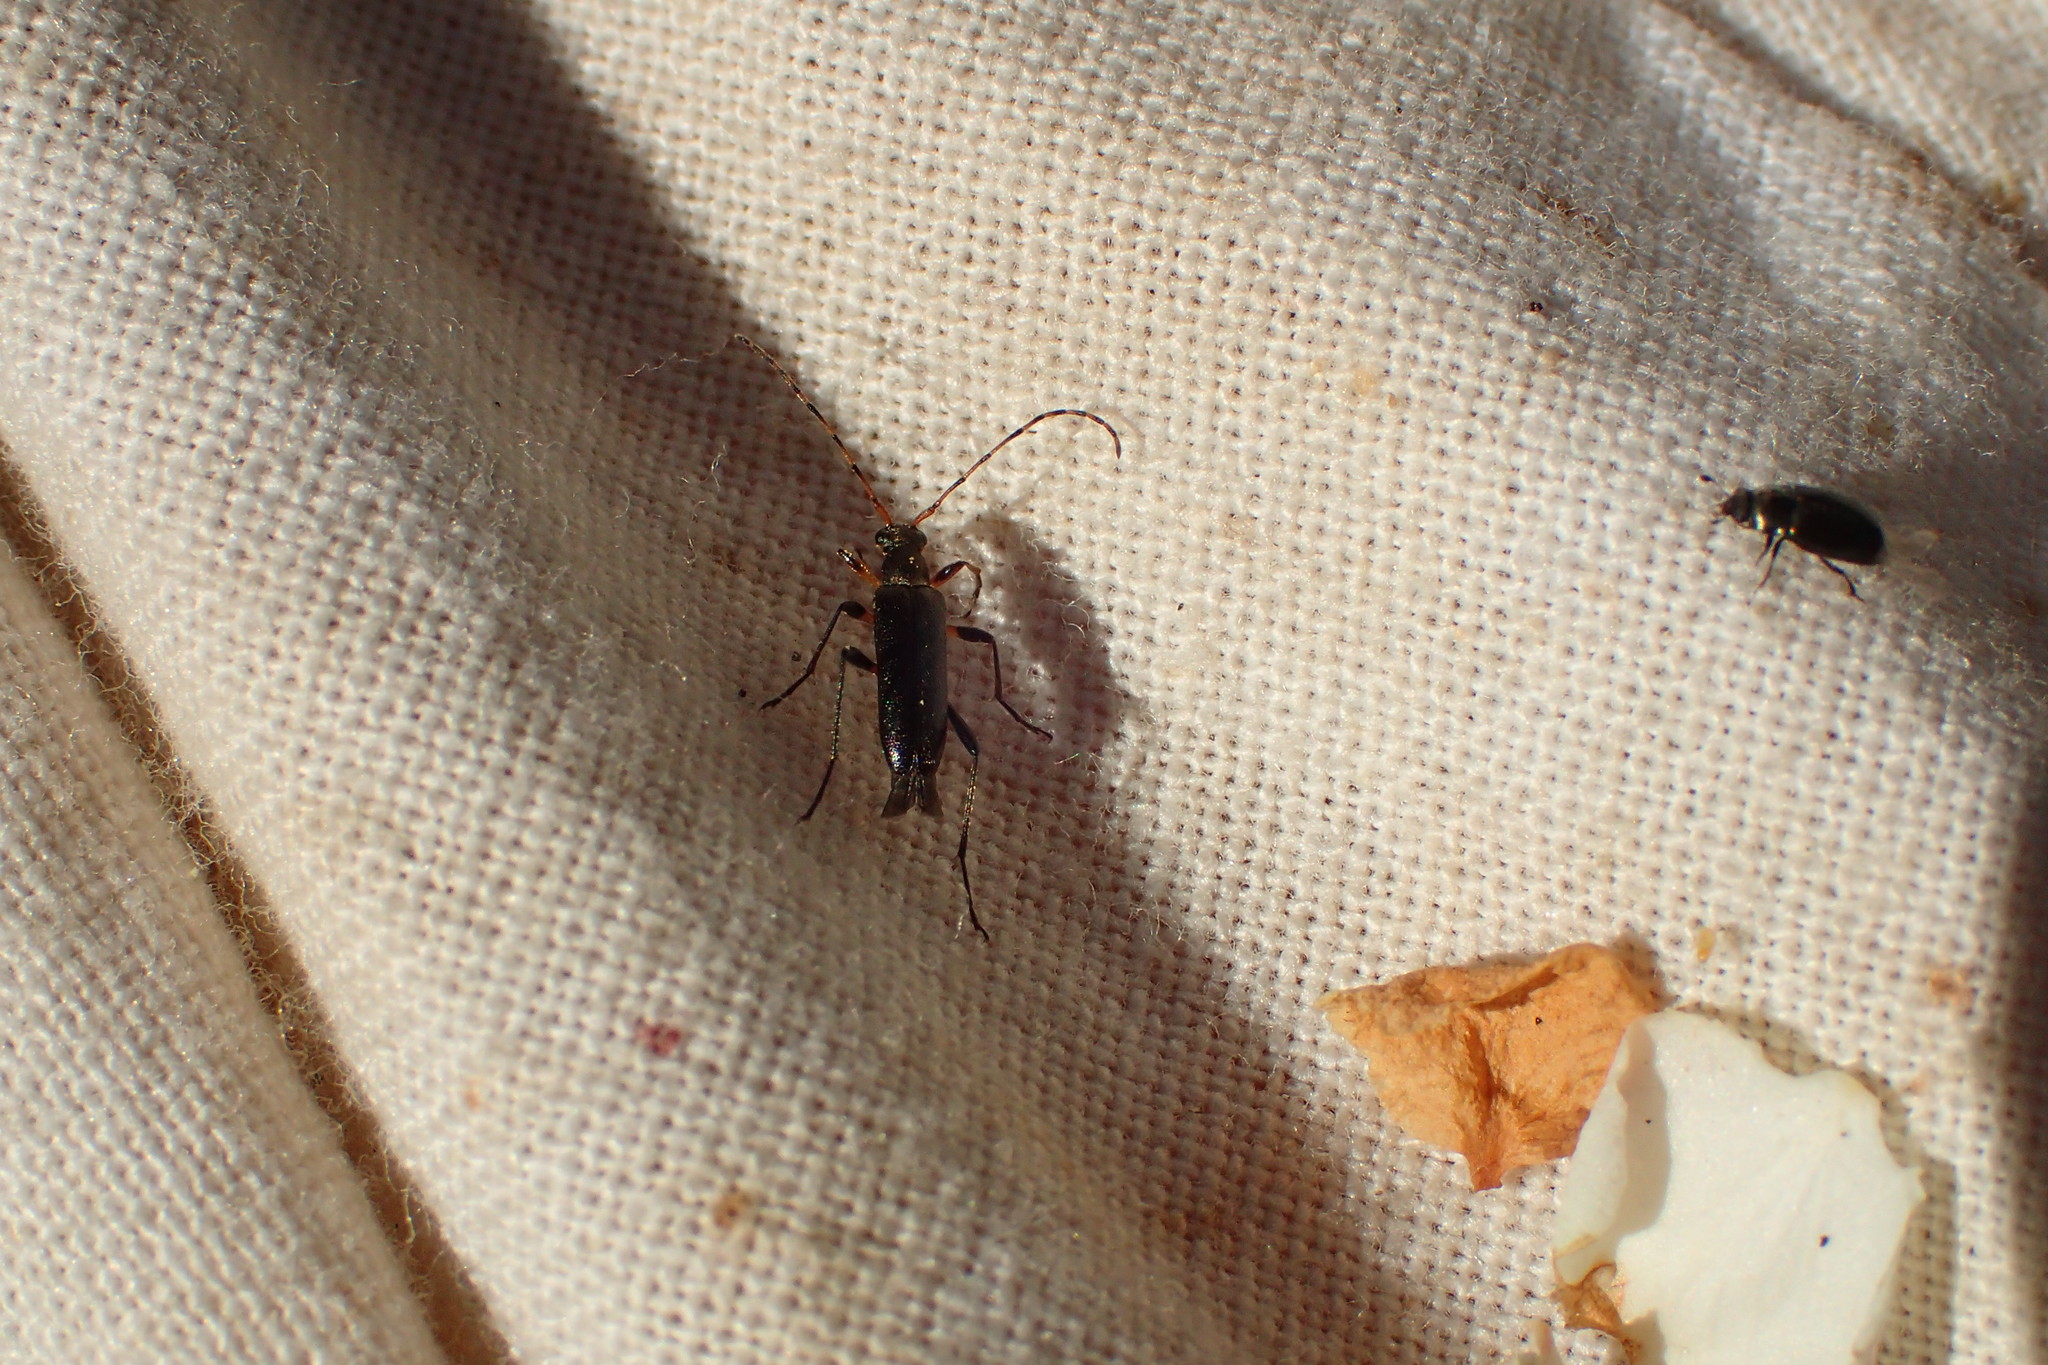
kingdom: Animalia
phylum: Arthropoda
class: Insecta
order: Coleoptera
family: Cerambycidae
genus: Grammoptera
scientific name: Grammoptera ruficornis
